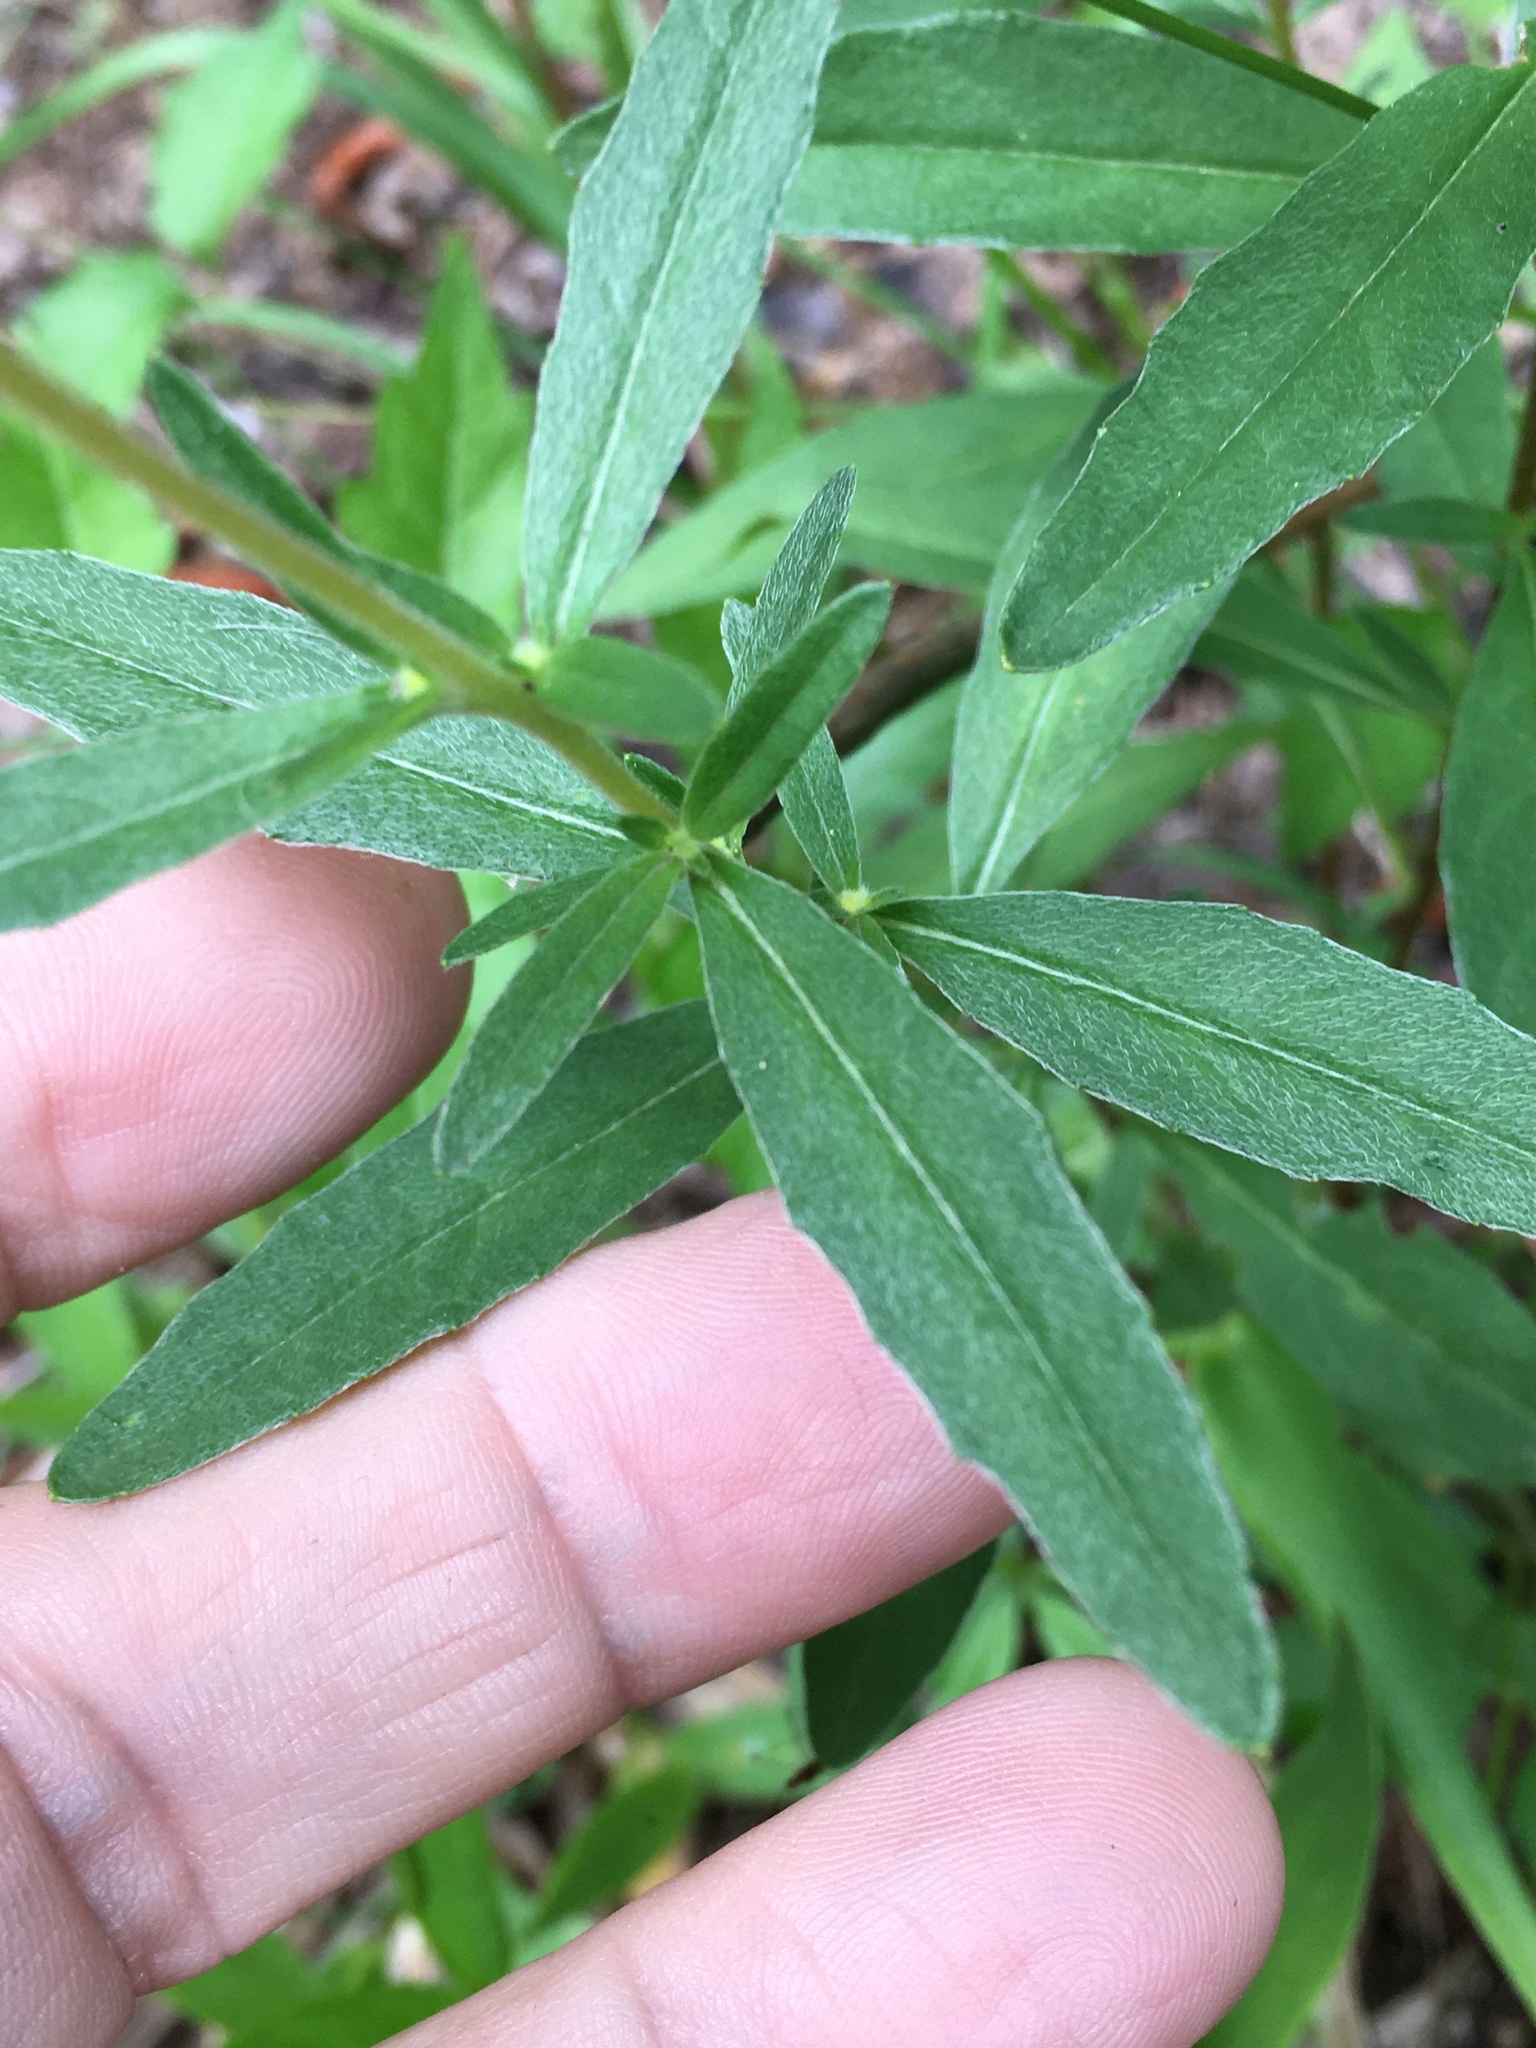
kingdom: Plantae
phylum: Tracheophyta
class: Magnoliopsida
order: Myrtales
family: Onagraceae
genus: Oenothera
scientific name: Oenothera fruticosa
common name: Southern sundrops
